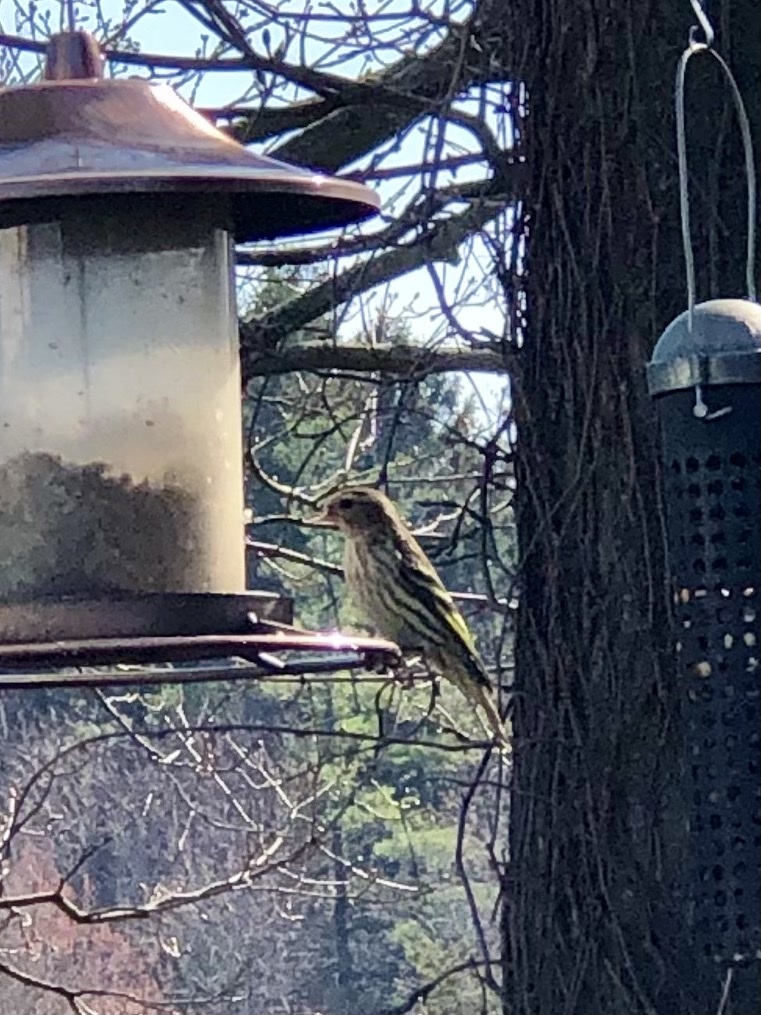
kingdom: Animalia
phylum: Chordata
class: Aves
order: Passeriformes
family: Fringillidae
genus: Spinus
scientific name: Spinus pinus
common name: Pine siskin
